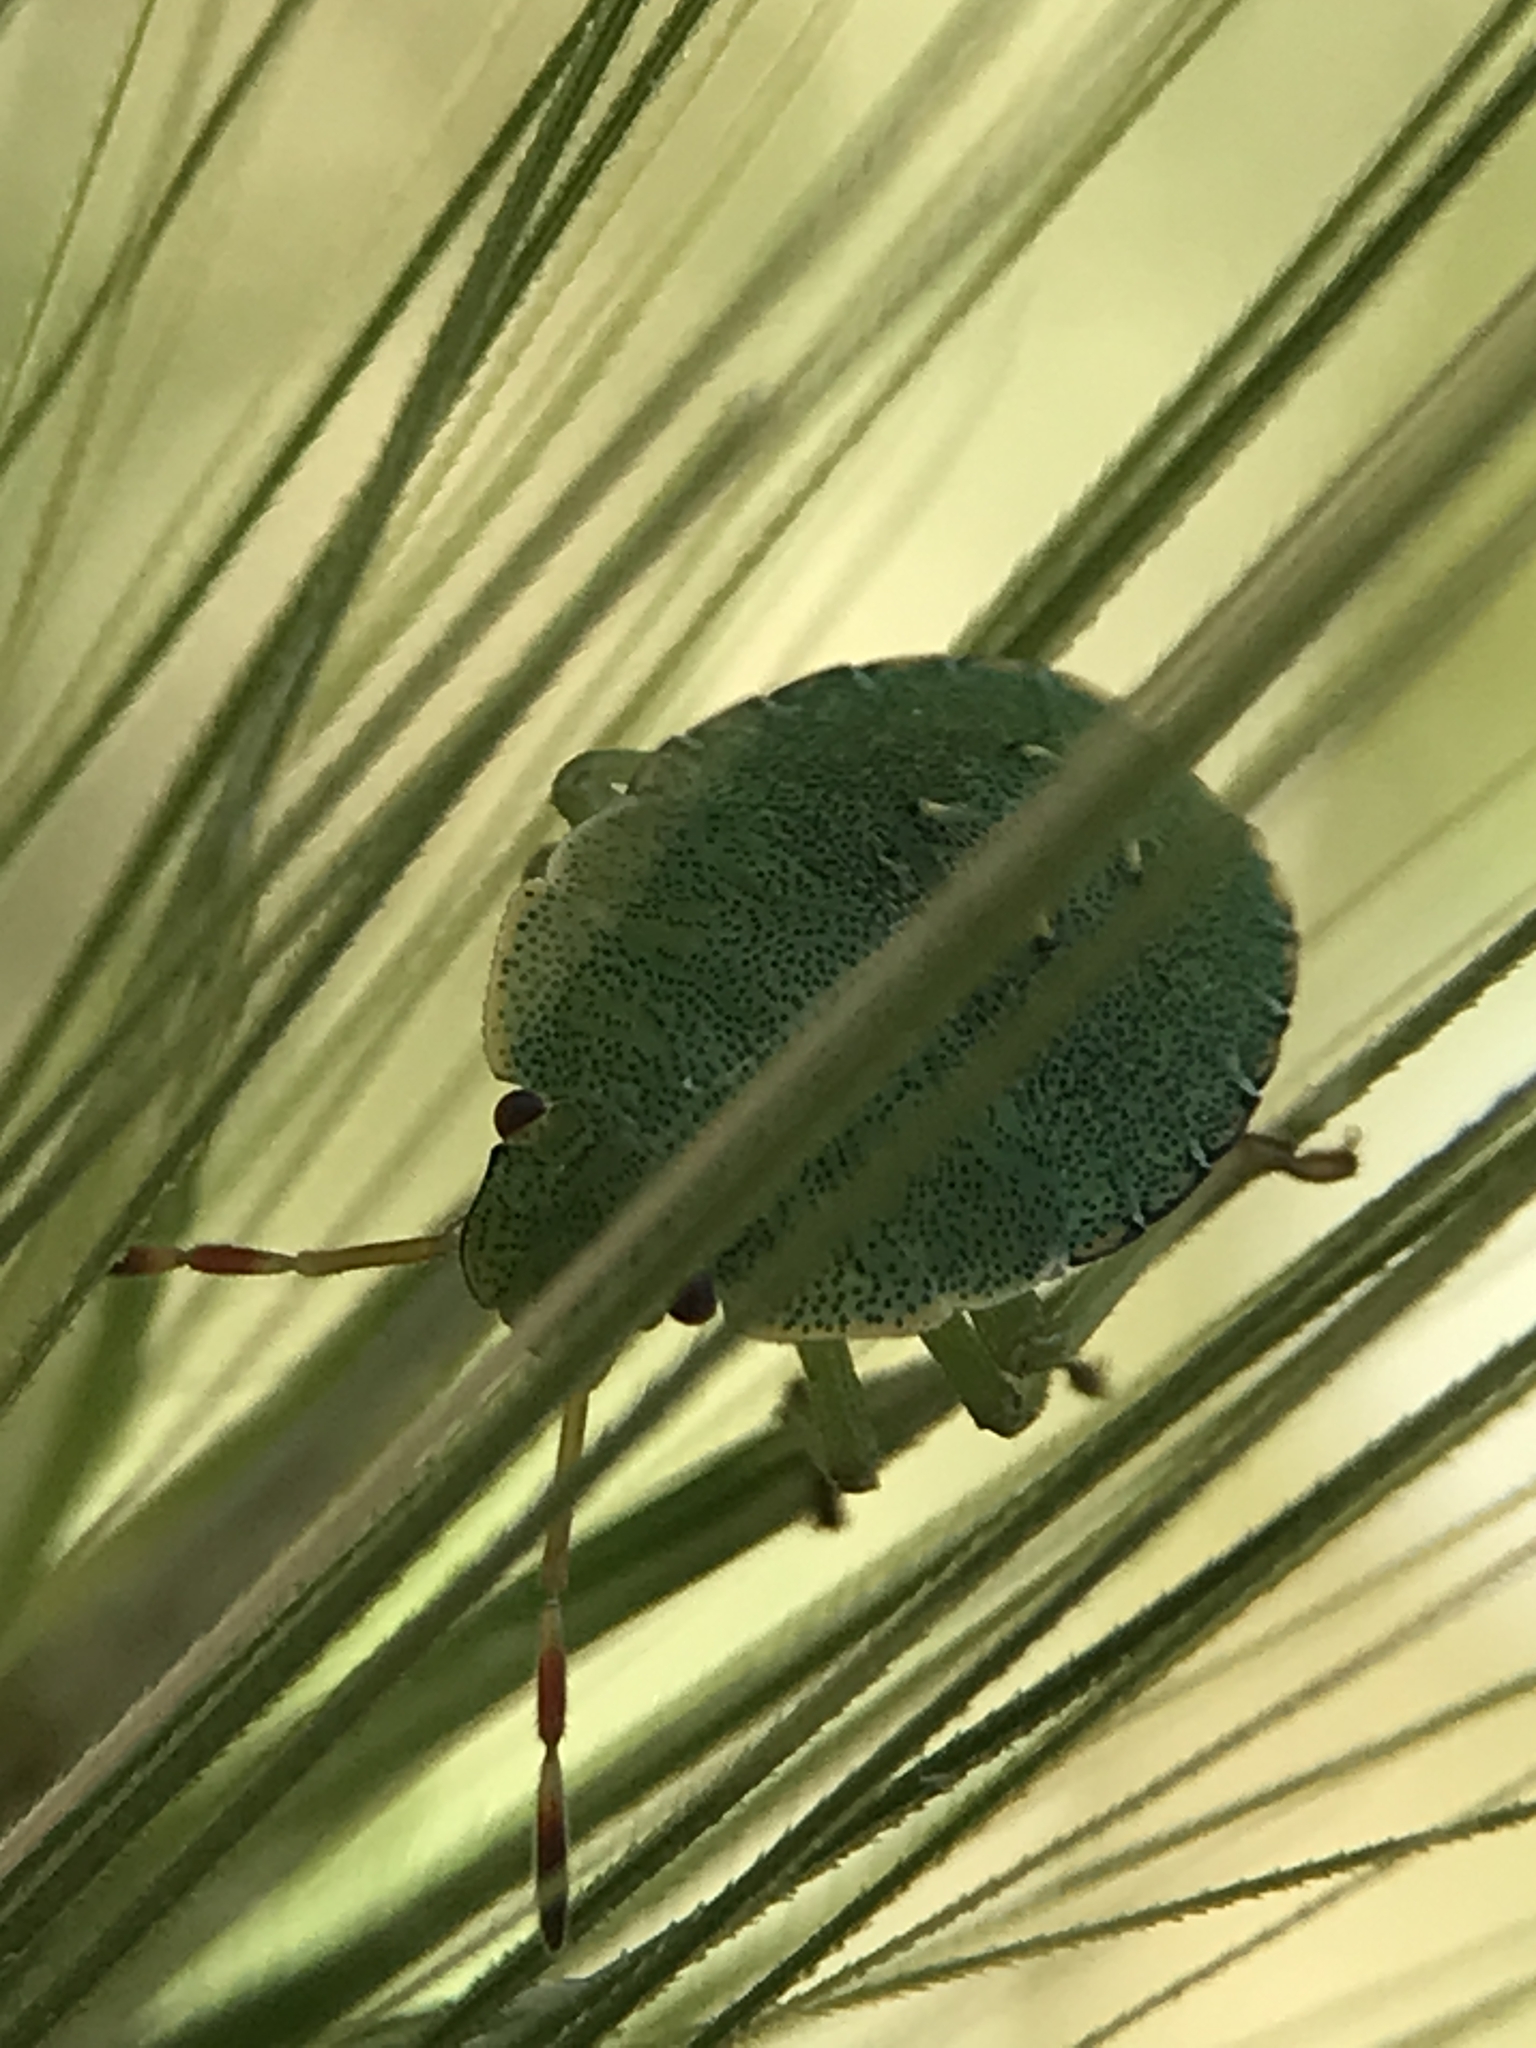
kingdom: Animalia
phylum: Arthropoda
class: Insecta
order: Hemiptera
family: Pentatomidae
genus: Palomena
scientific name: Palomena prasina
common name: Green shieldbug
